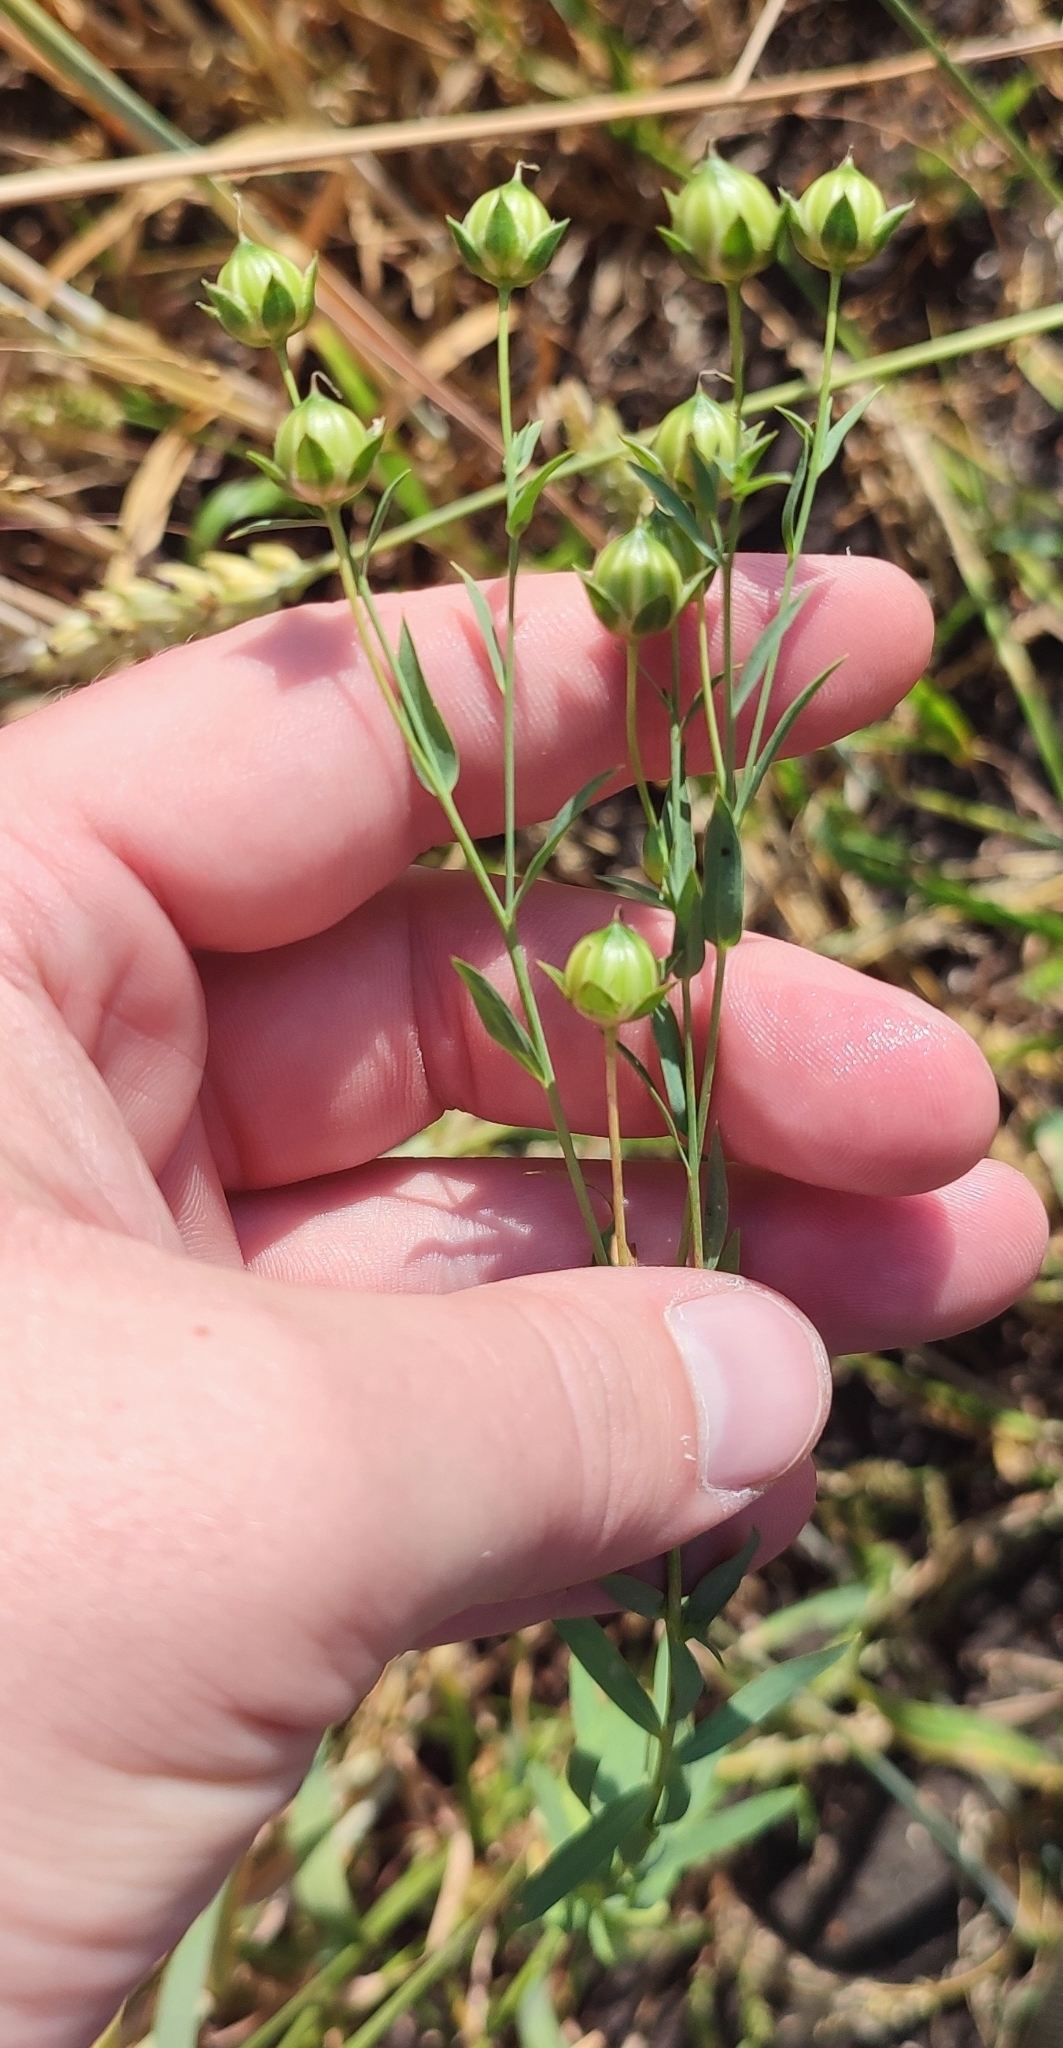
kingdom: Plantae
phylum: Tracheophyta
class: Magnoliopsida
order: Malpighiales
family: Linaceae
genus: Linum
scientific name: Linum usitatissimum
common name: Flax
